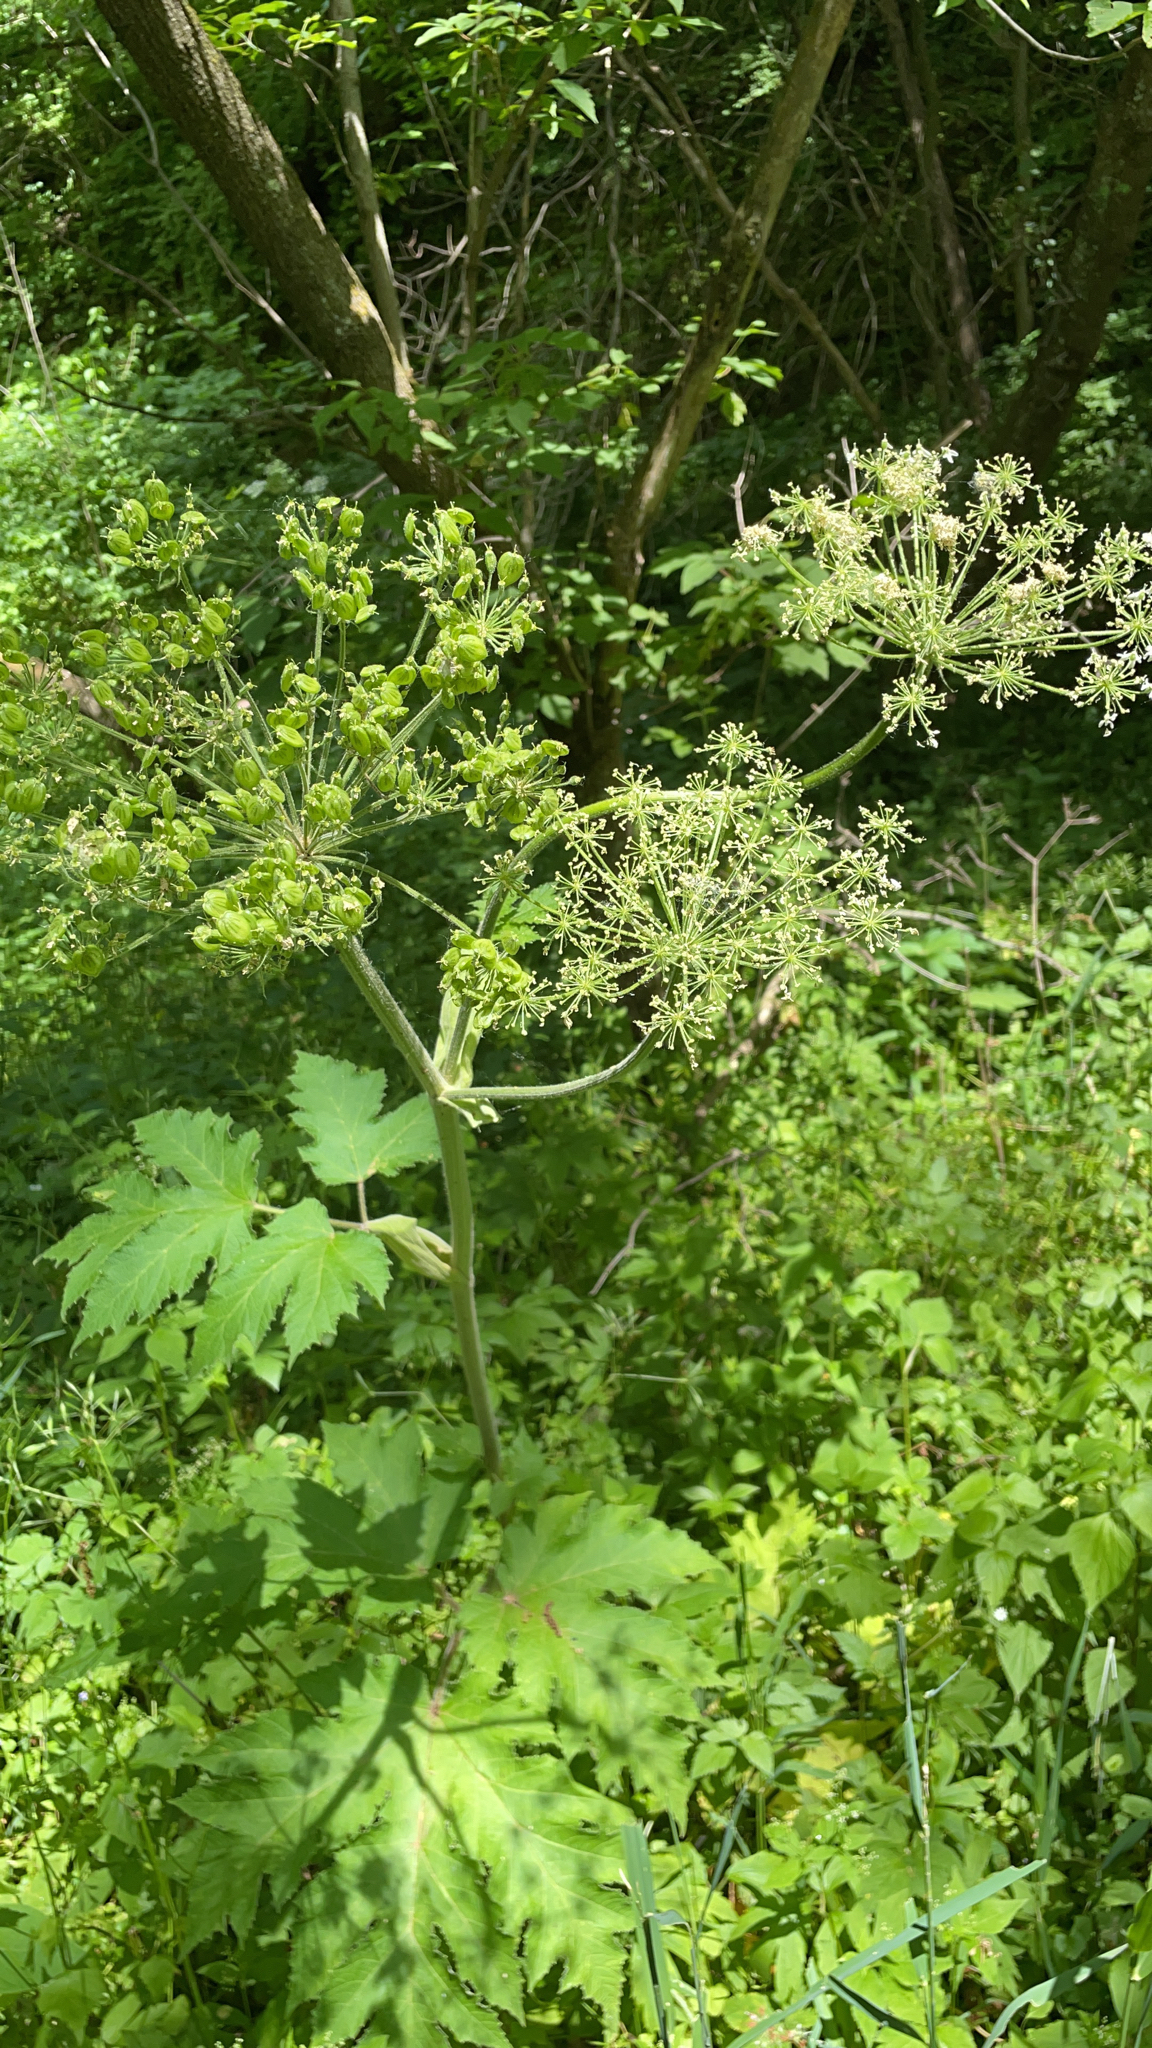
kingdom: Plantae
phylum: Tracheophyta
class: Magnoliopsida
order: Apiales
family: Apiaceae
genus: Heracleum
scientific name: Heracleum maximum
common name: American cow parsnip
